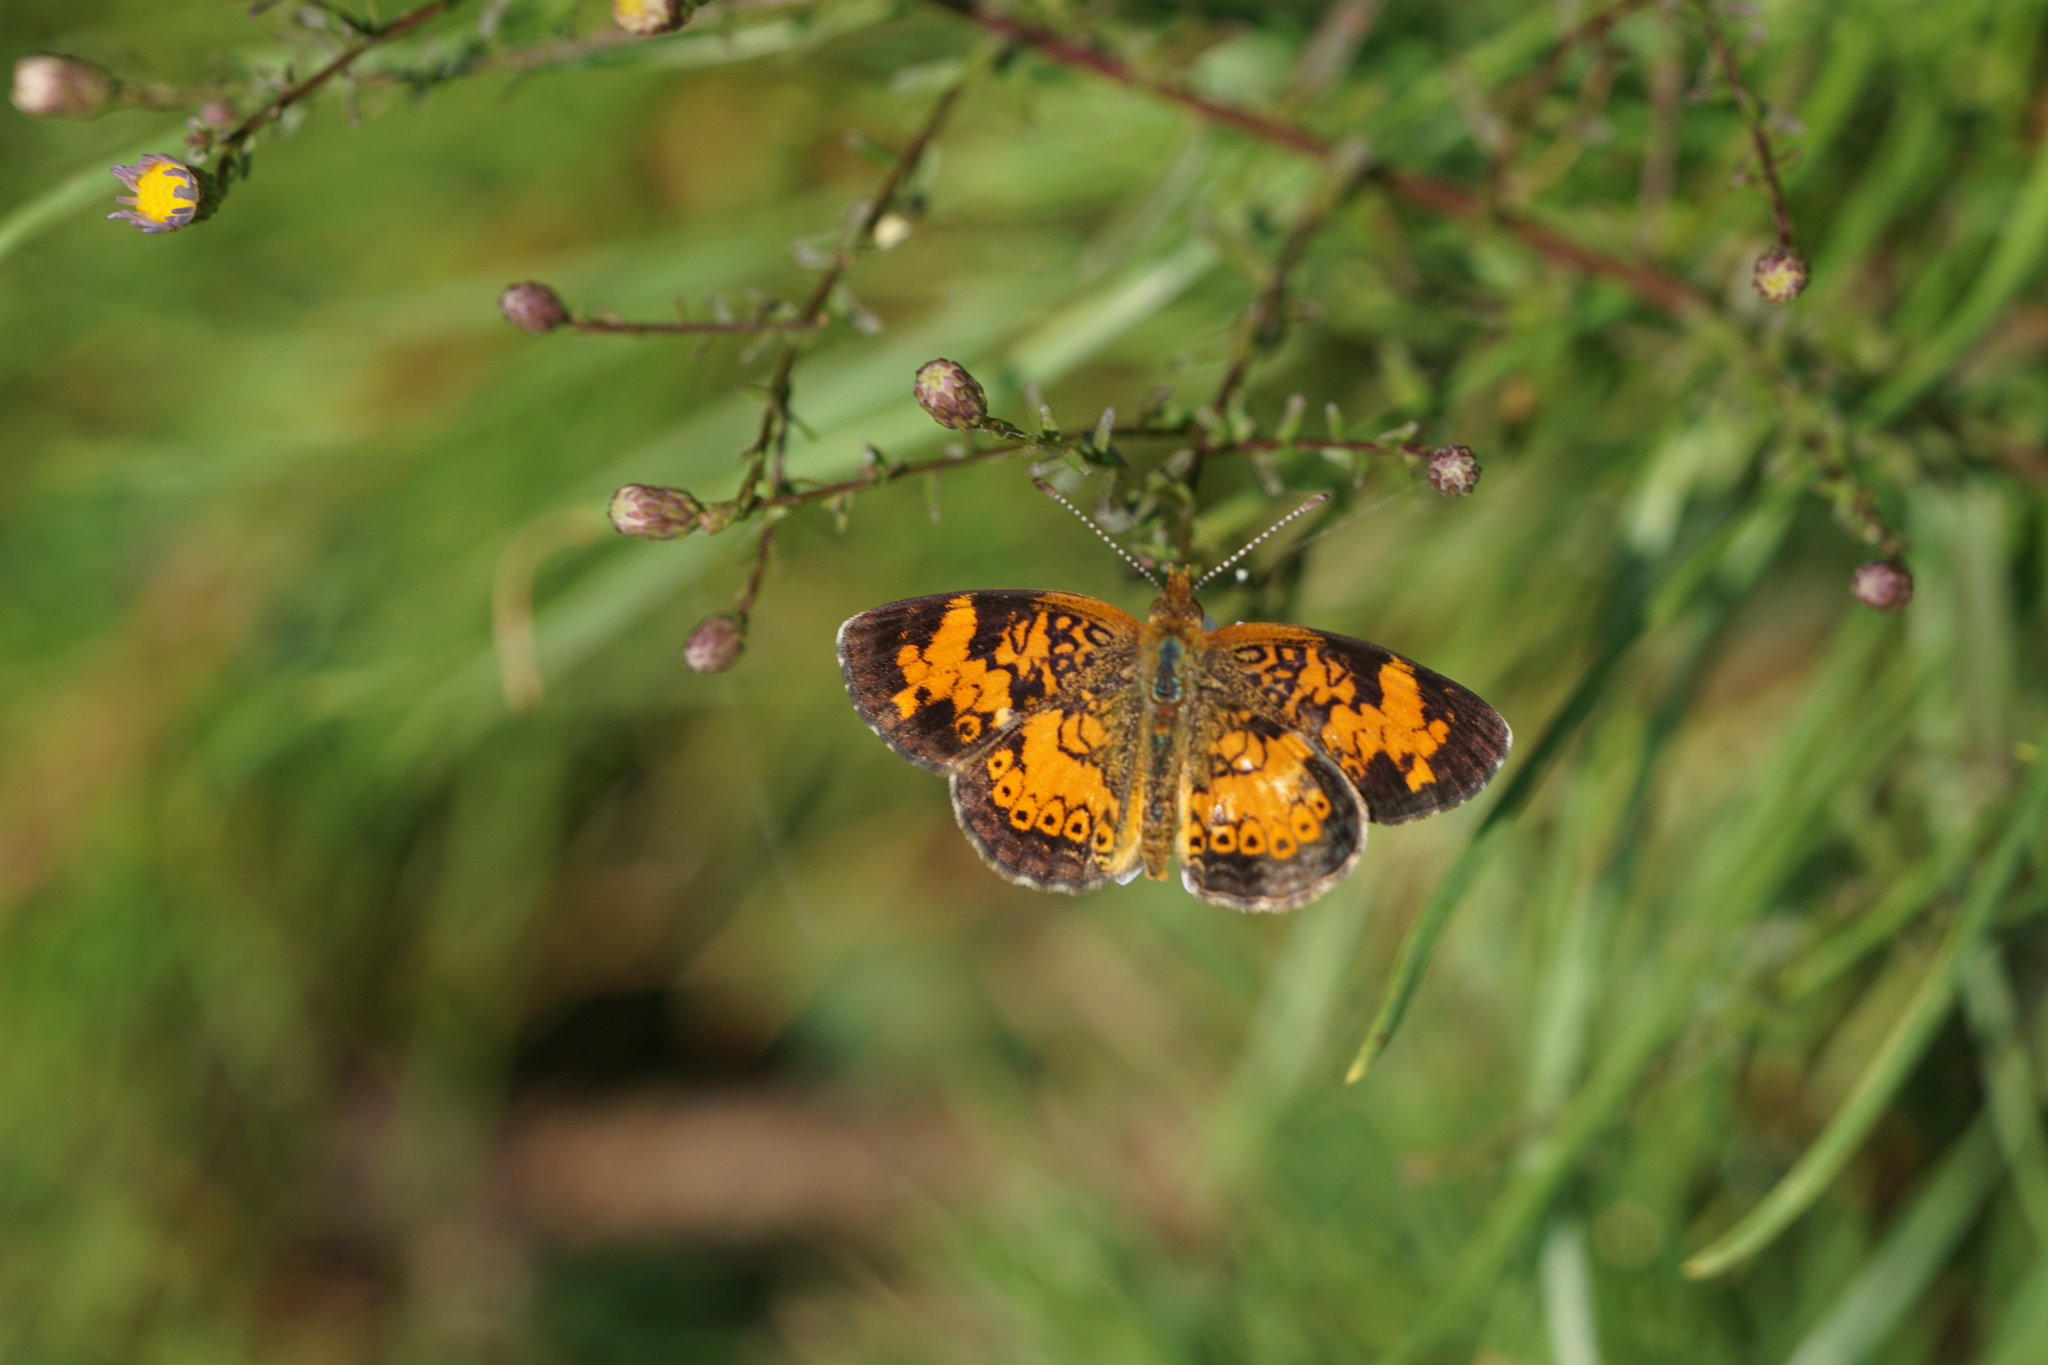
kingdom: Animalia
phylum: Arthropoda
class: Insecta
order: Lepidoptera
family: Nymphalidae
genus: Phyciodes
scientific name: Phyciodes tharos
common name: Pearl crescent
